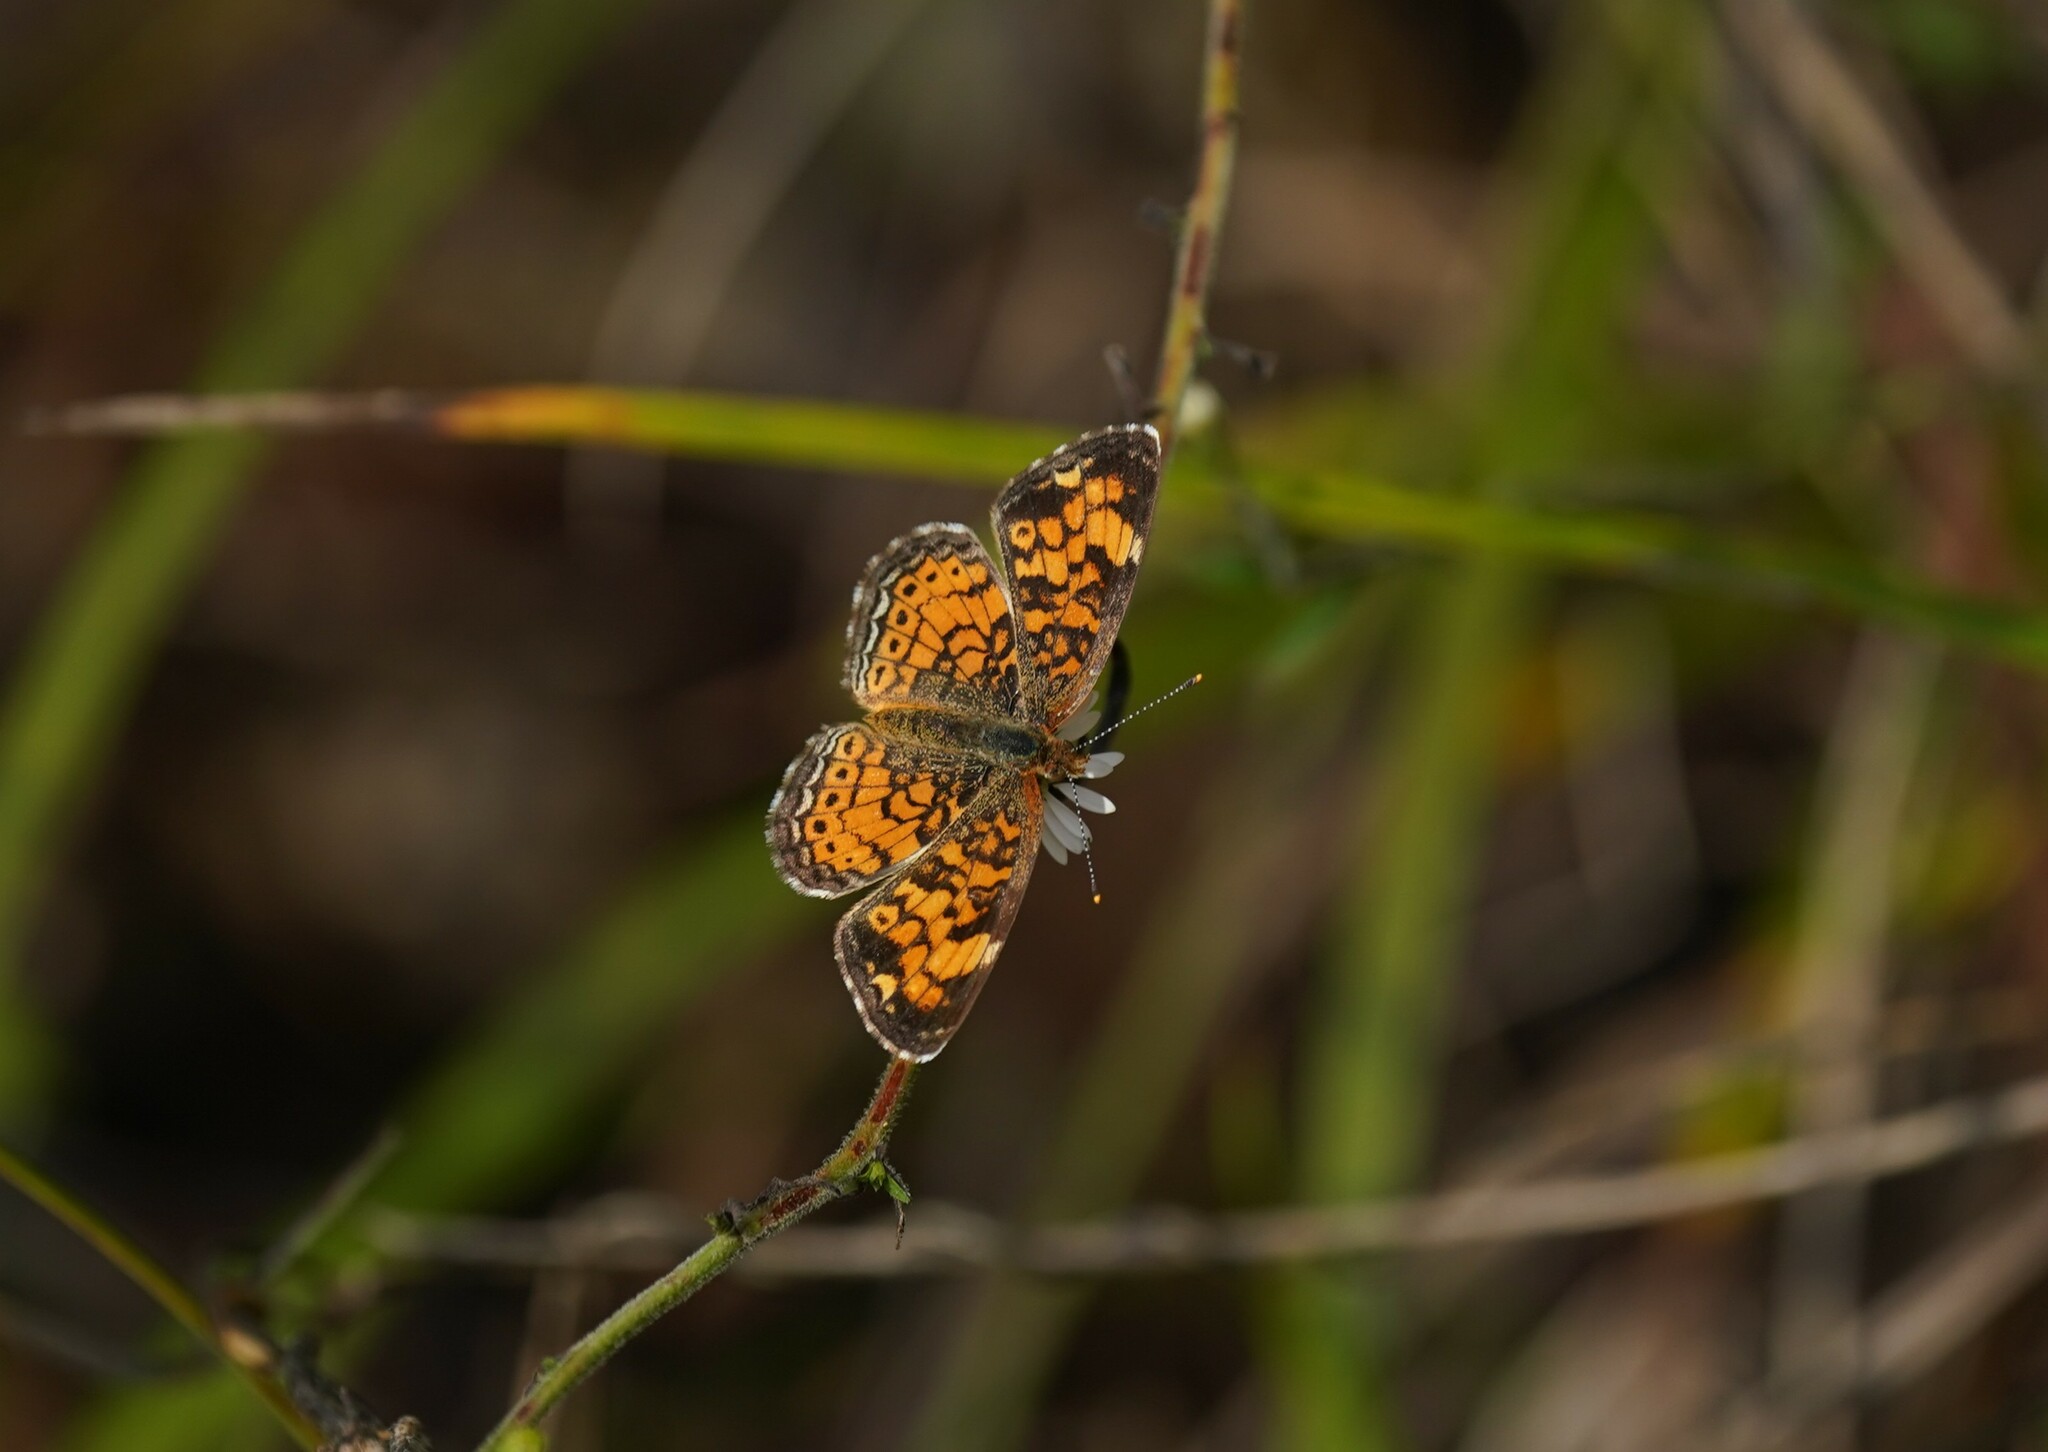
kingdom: Animalia
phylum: Arthropoda
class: Insecta
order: Lepidoptera
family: Nymphalidae
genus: Phyciodes
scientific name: Phyciodes tharos
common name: Pearl crescent
